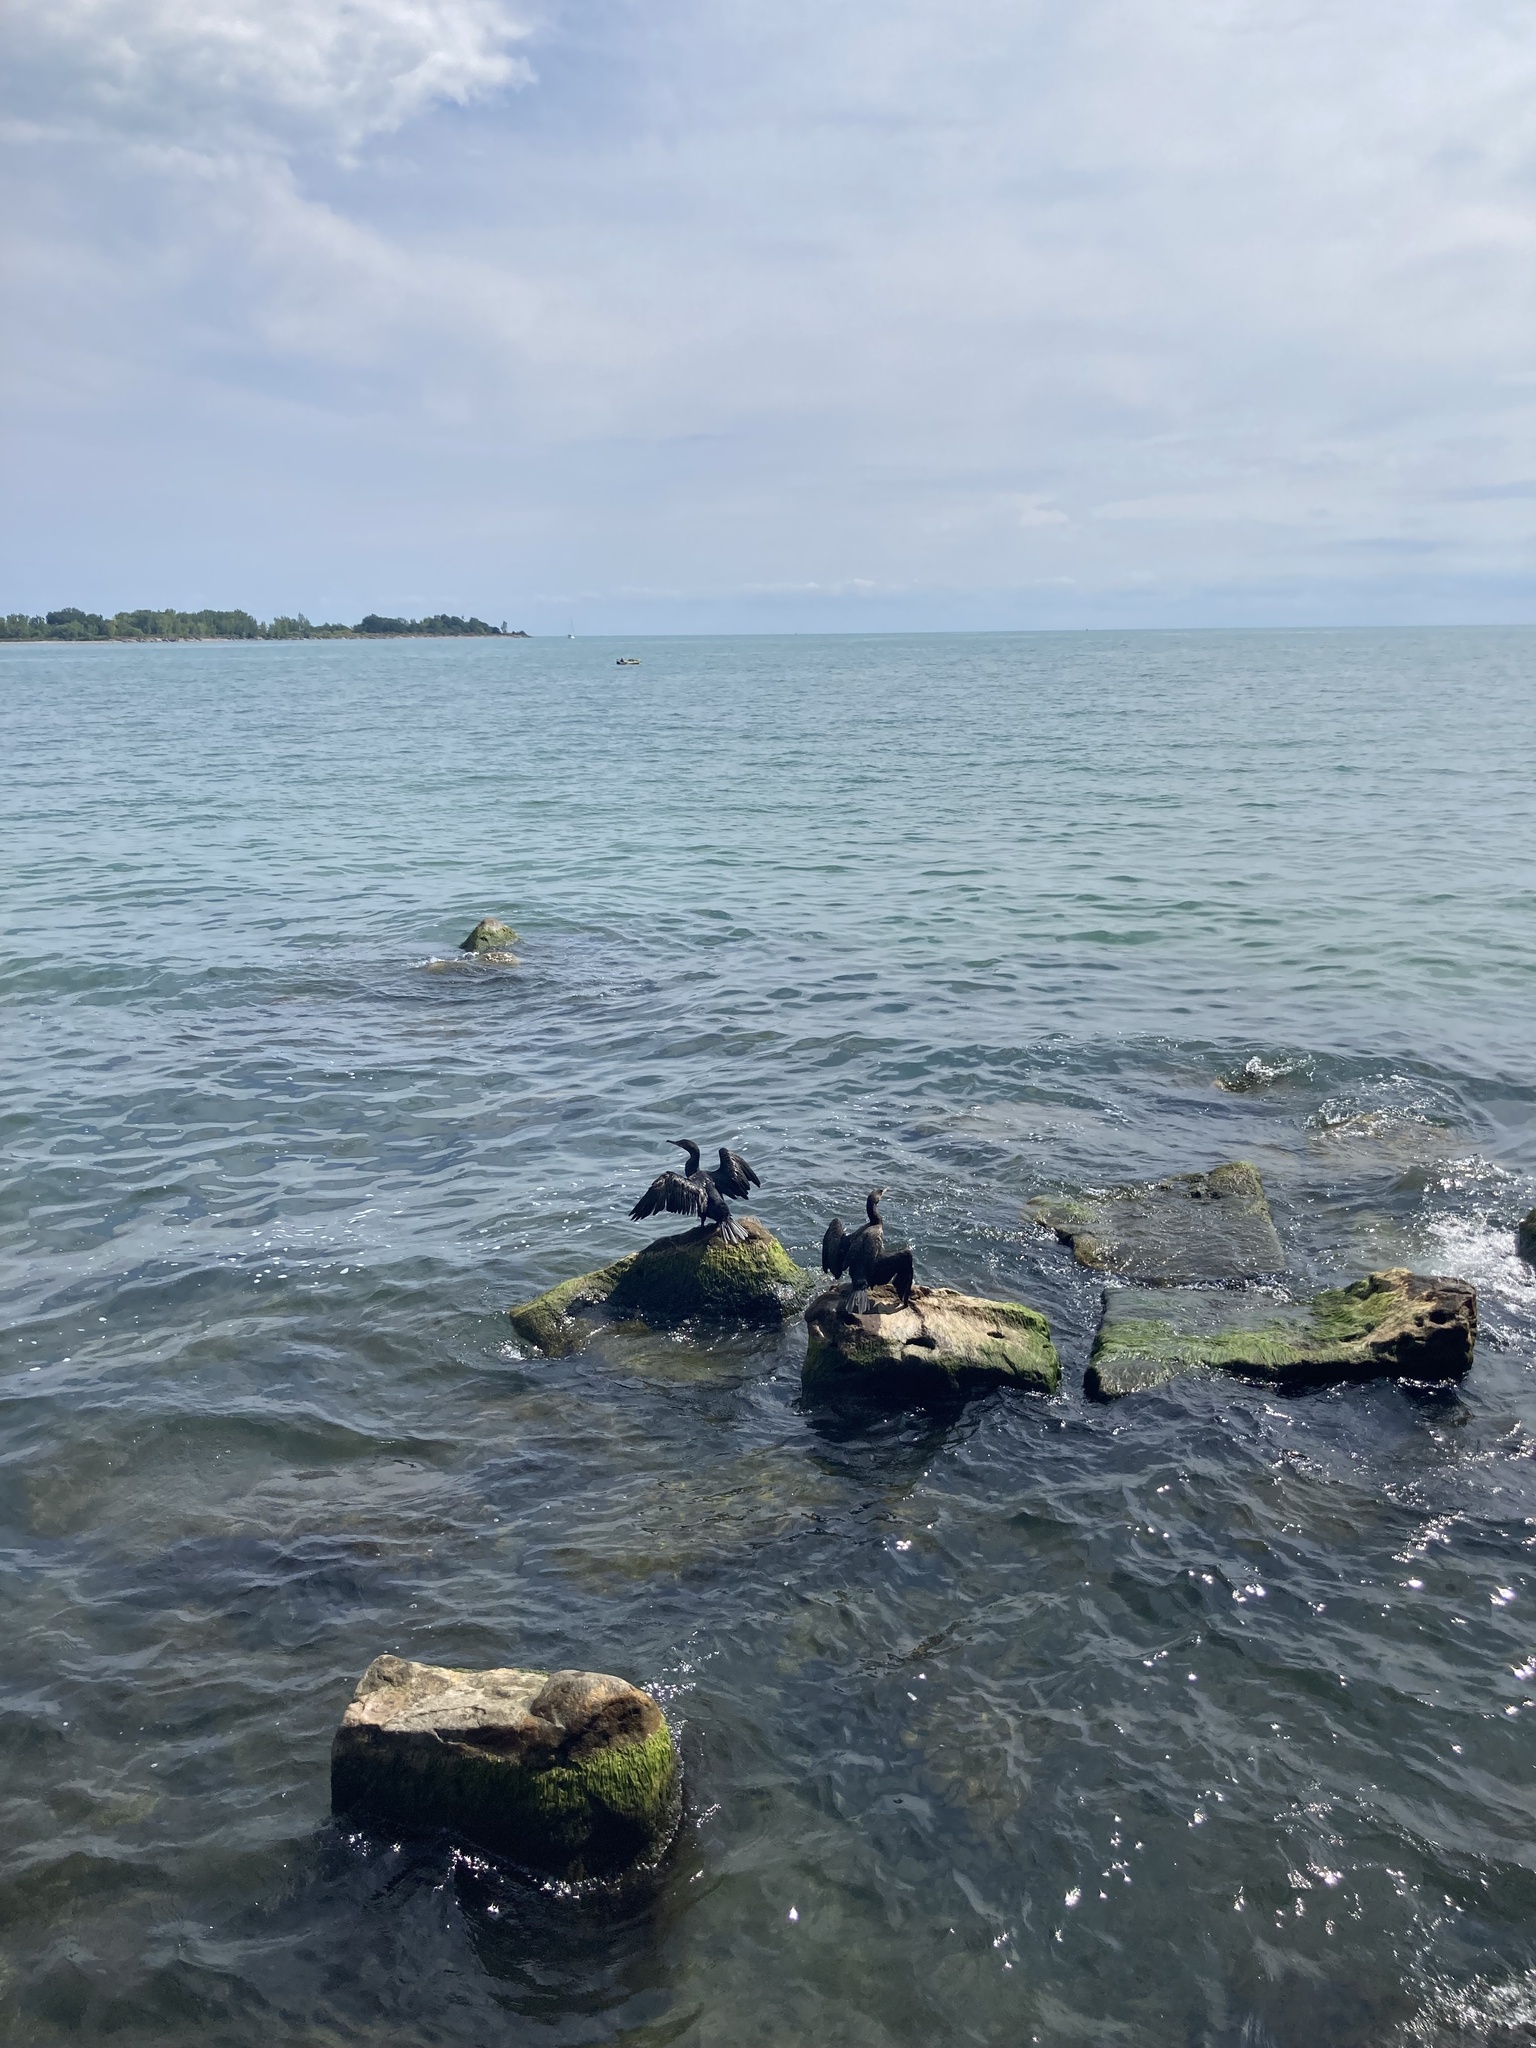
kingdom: Animalia
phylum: Chordata
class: Aves
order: Suliformes
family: Phalacrocoracidae
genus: Phalacrocorax
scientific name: Phalacrocorax auritus
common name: Double-crested cormorant
